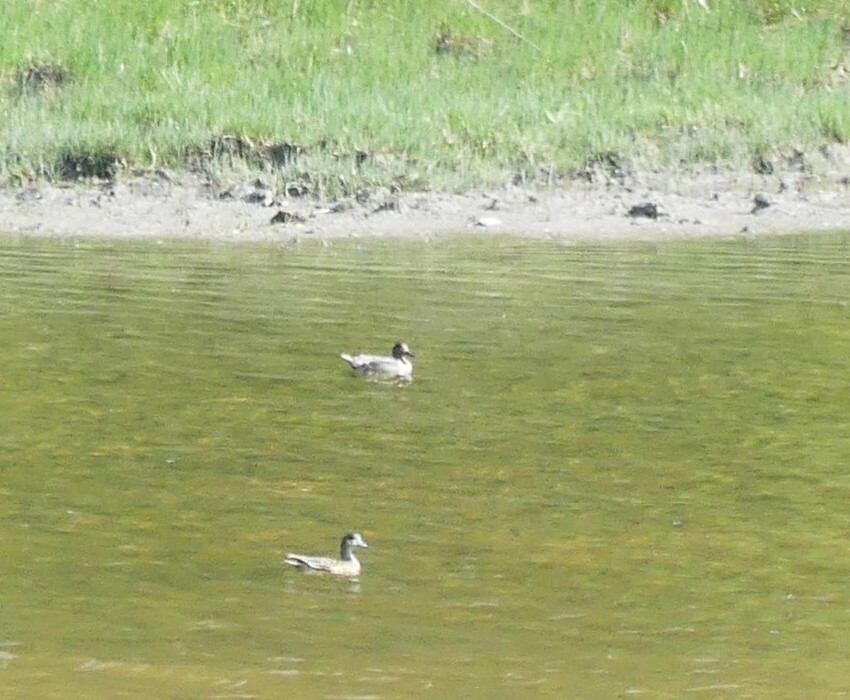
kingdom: Animalia
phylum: Chordata
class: Aves
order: Anseriformes
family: Anatidae
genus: Anas
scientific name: Anas crecca
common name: Eurasian teal
